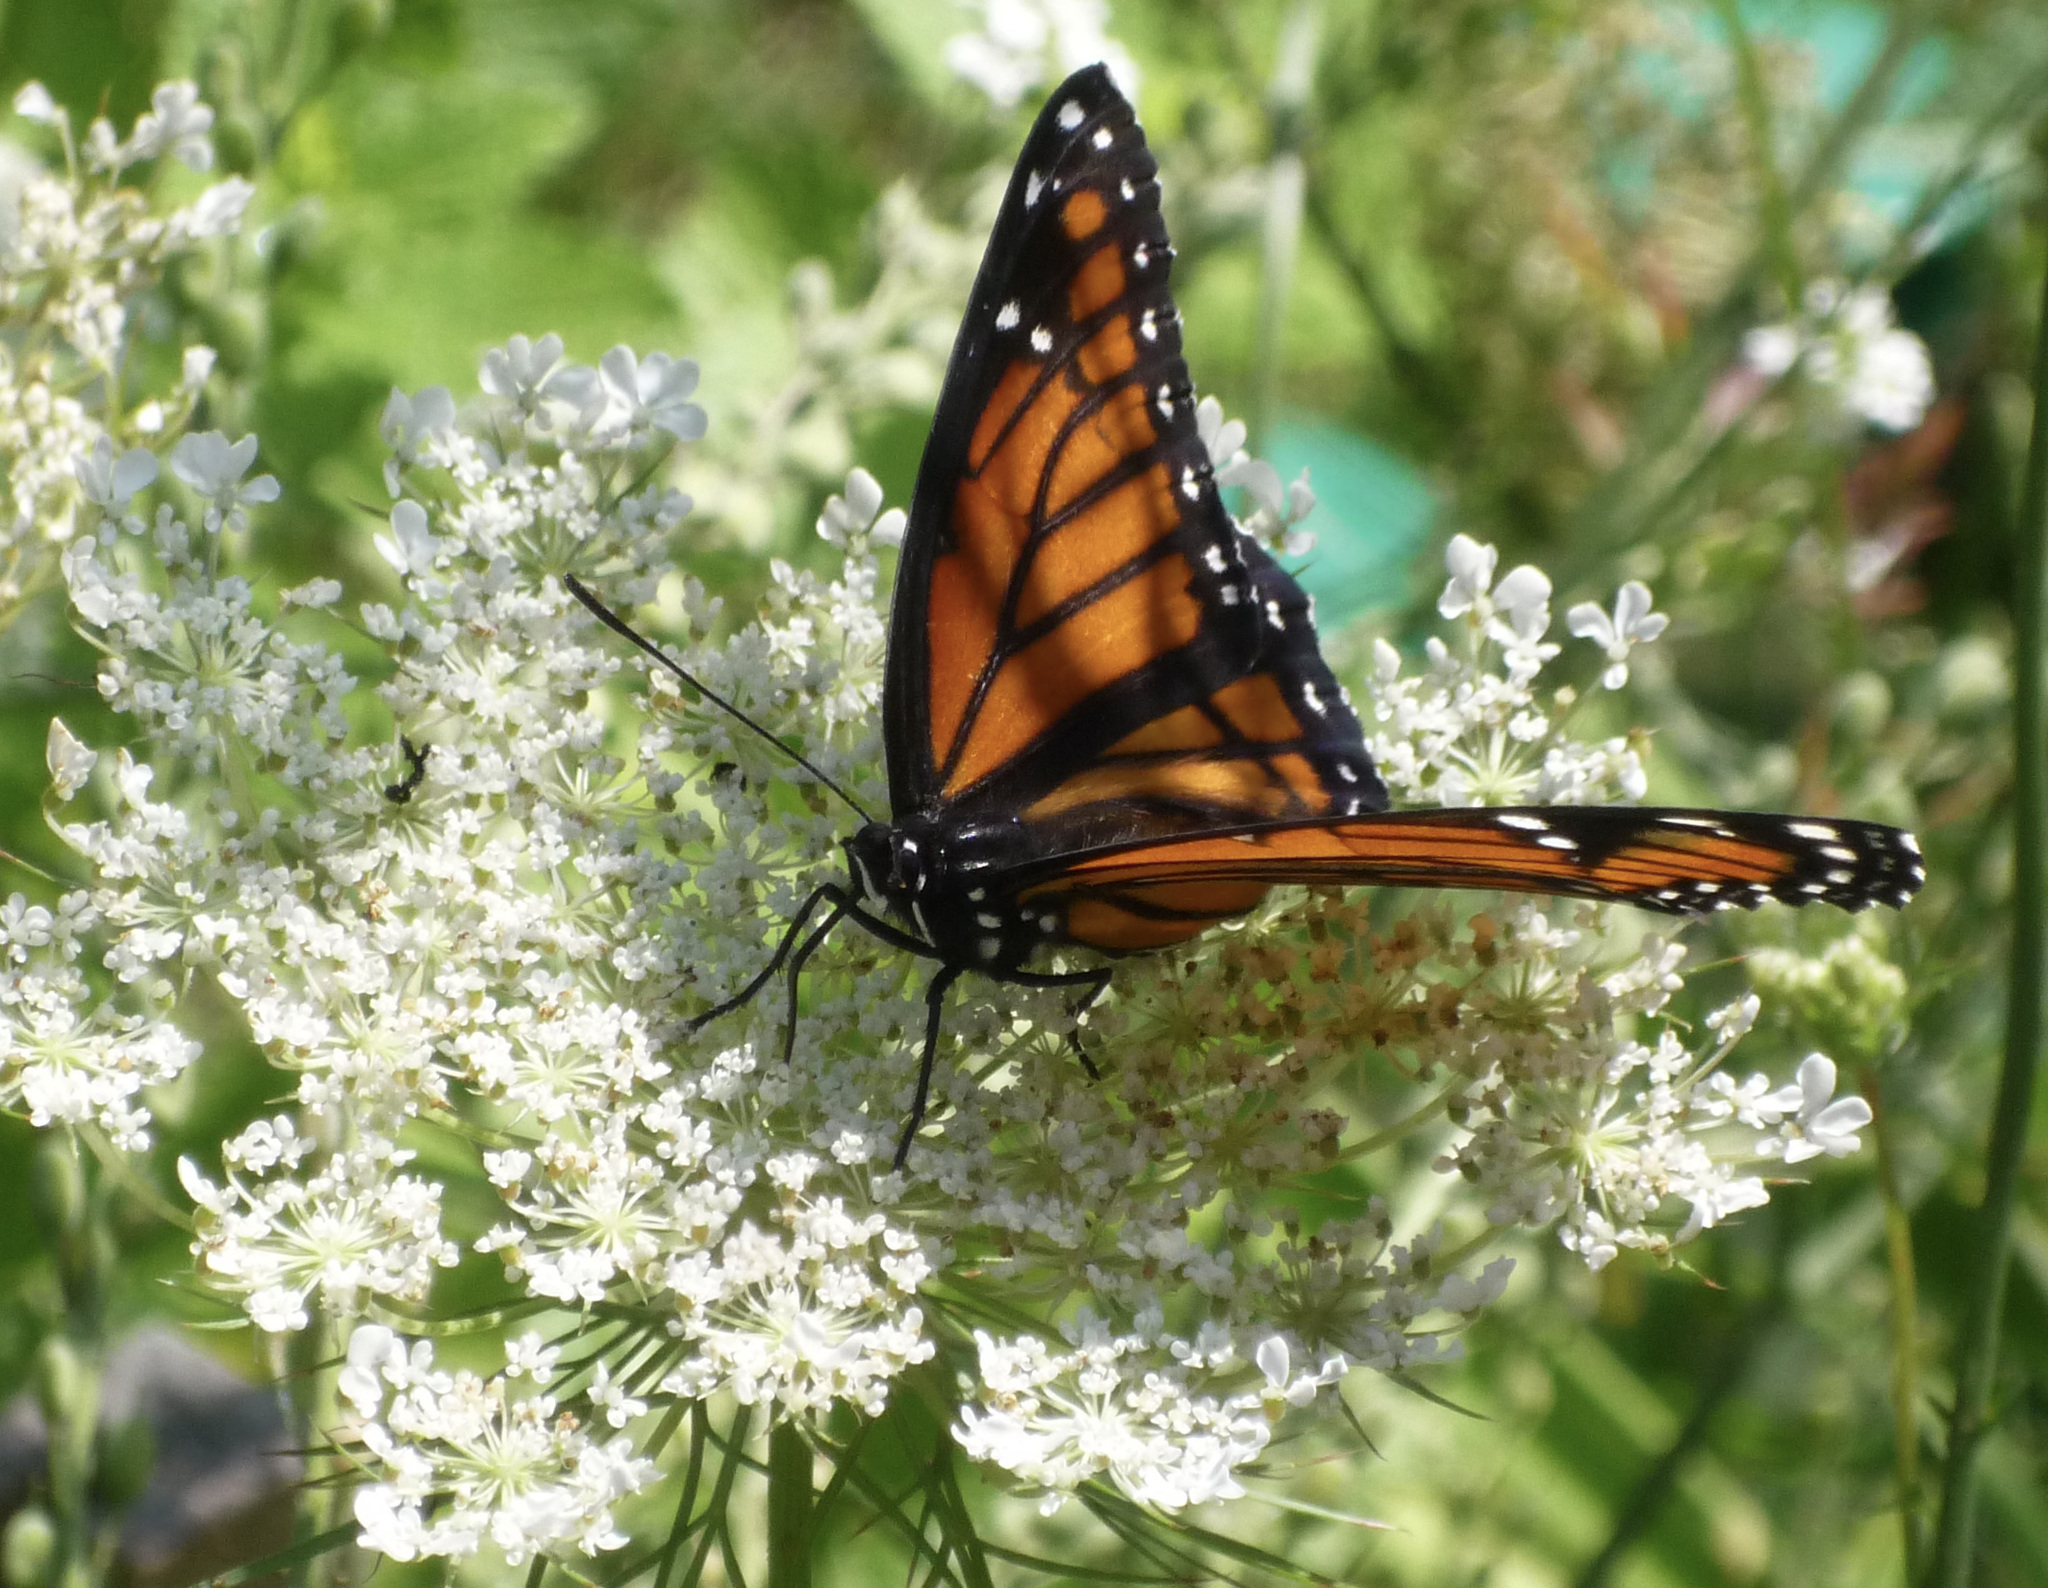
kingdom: Animalia
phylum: Arthropoda
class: Insecta
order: Lepidoptera
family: Nymphalidae
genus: Limenitis
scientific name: Limenitis archippus
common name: Viceroy
